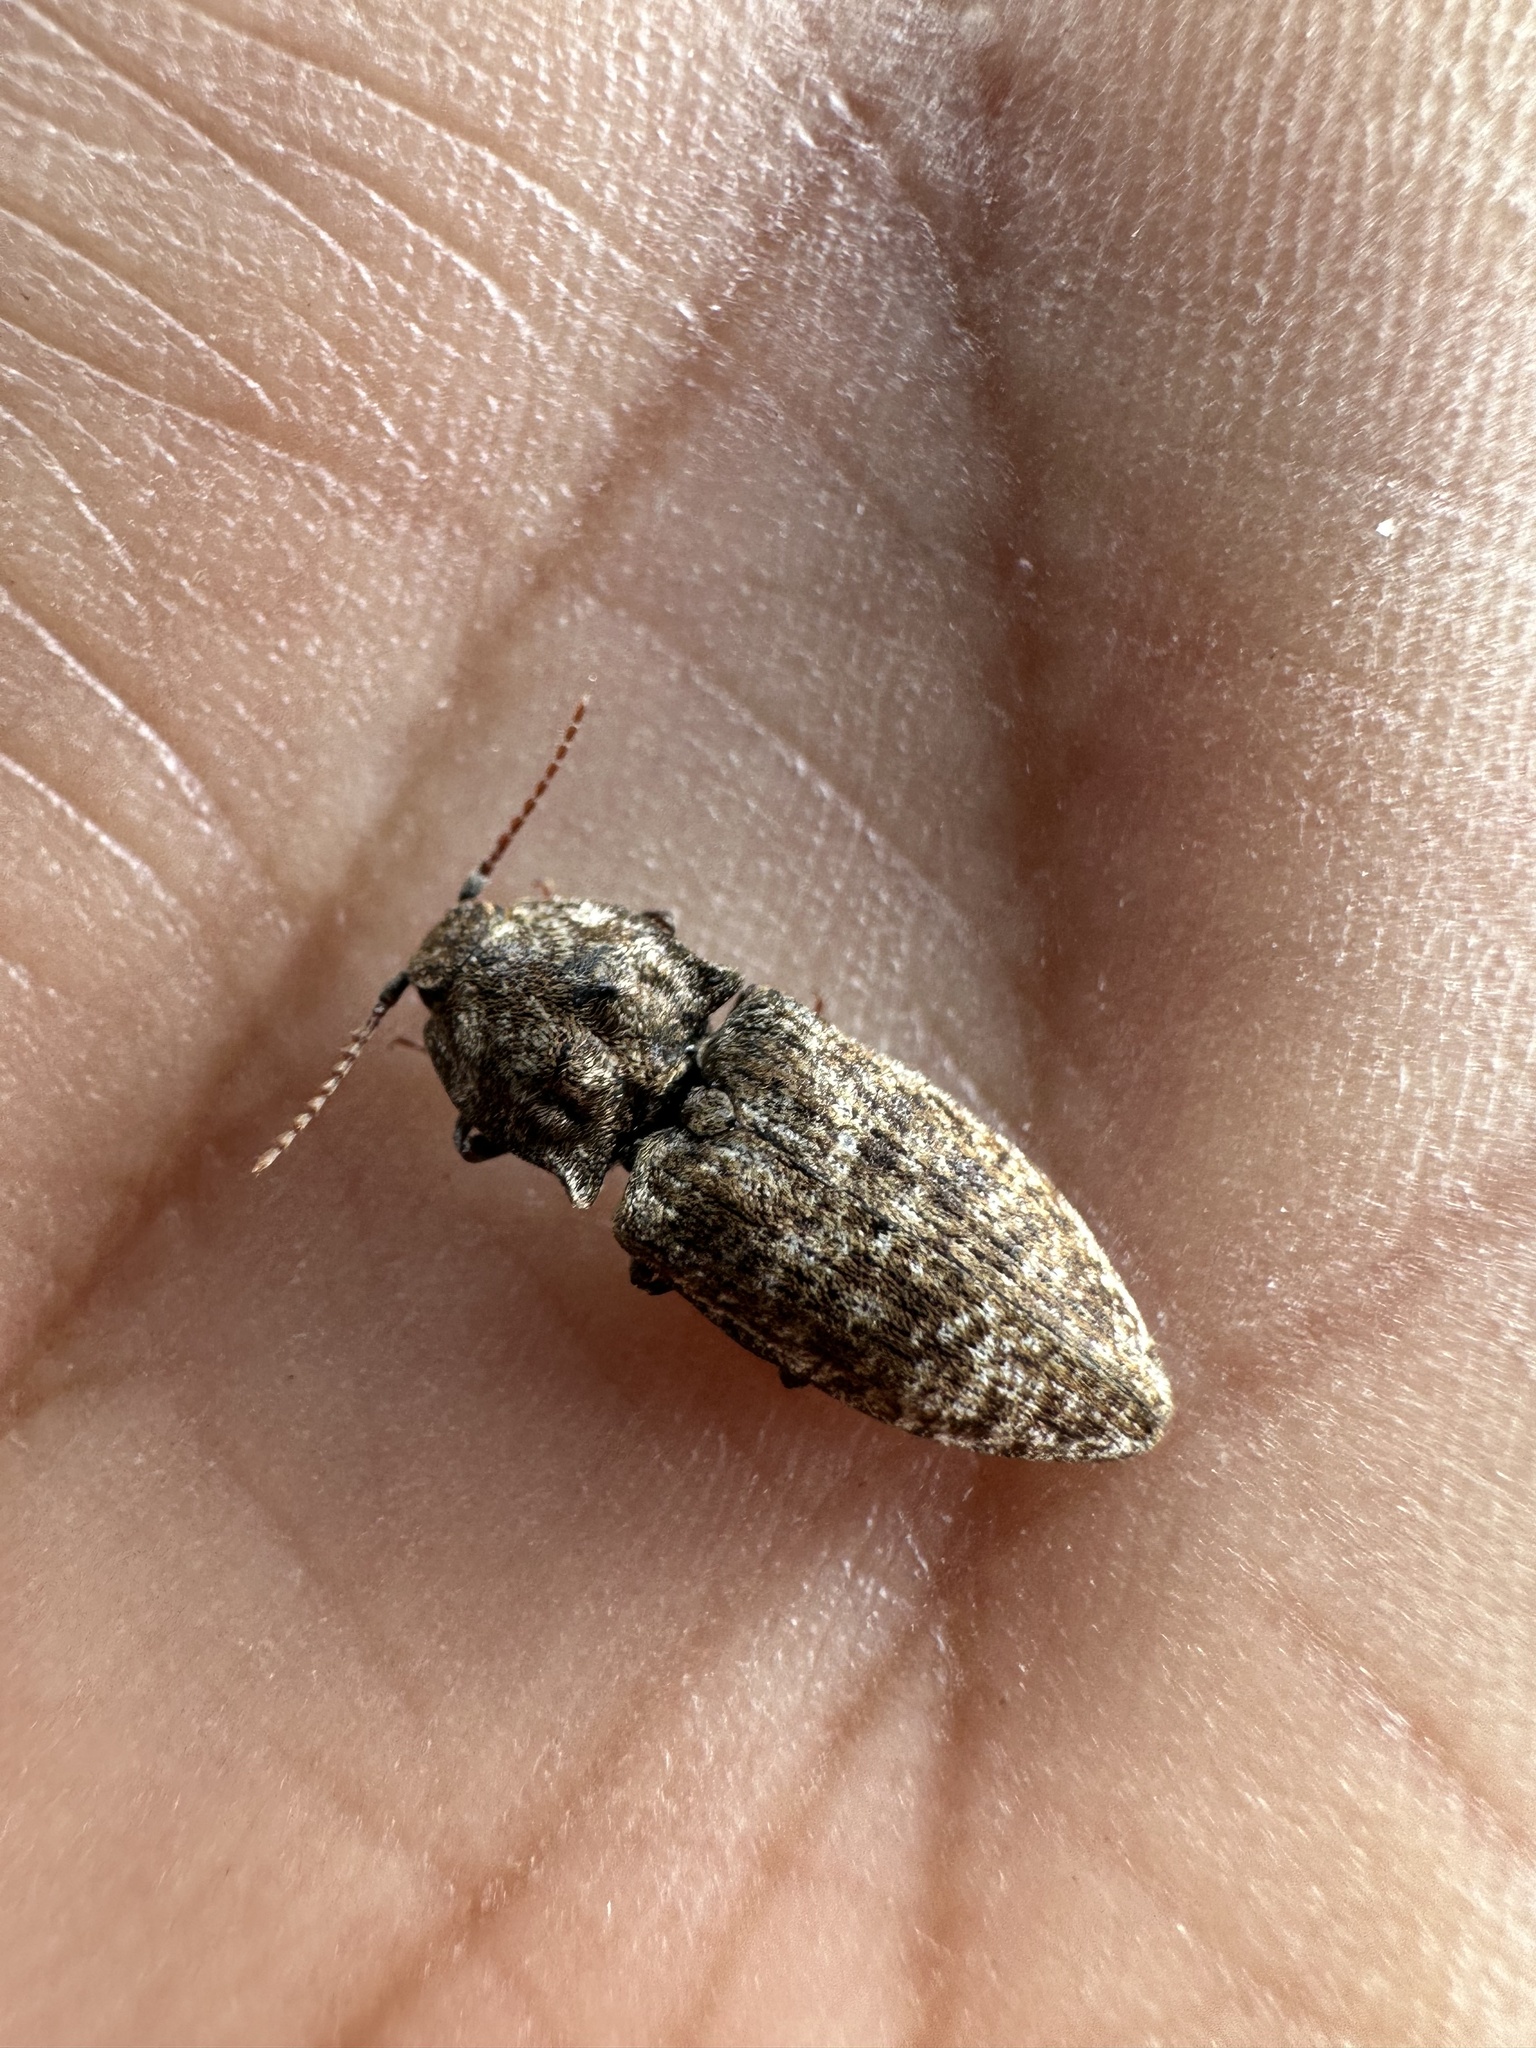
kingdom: Animalia
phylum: Arthropoda
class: Insecta
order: Coleoptera
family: Elateridae
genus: Agrypnus
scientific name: Agrypnus murinus
